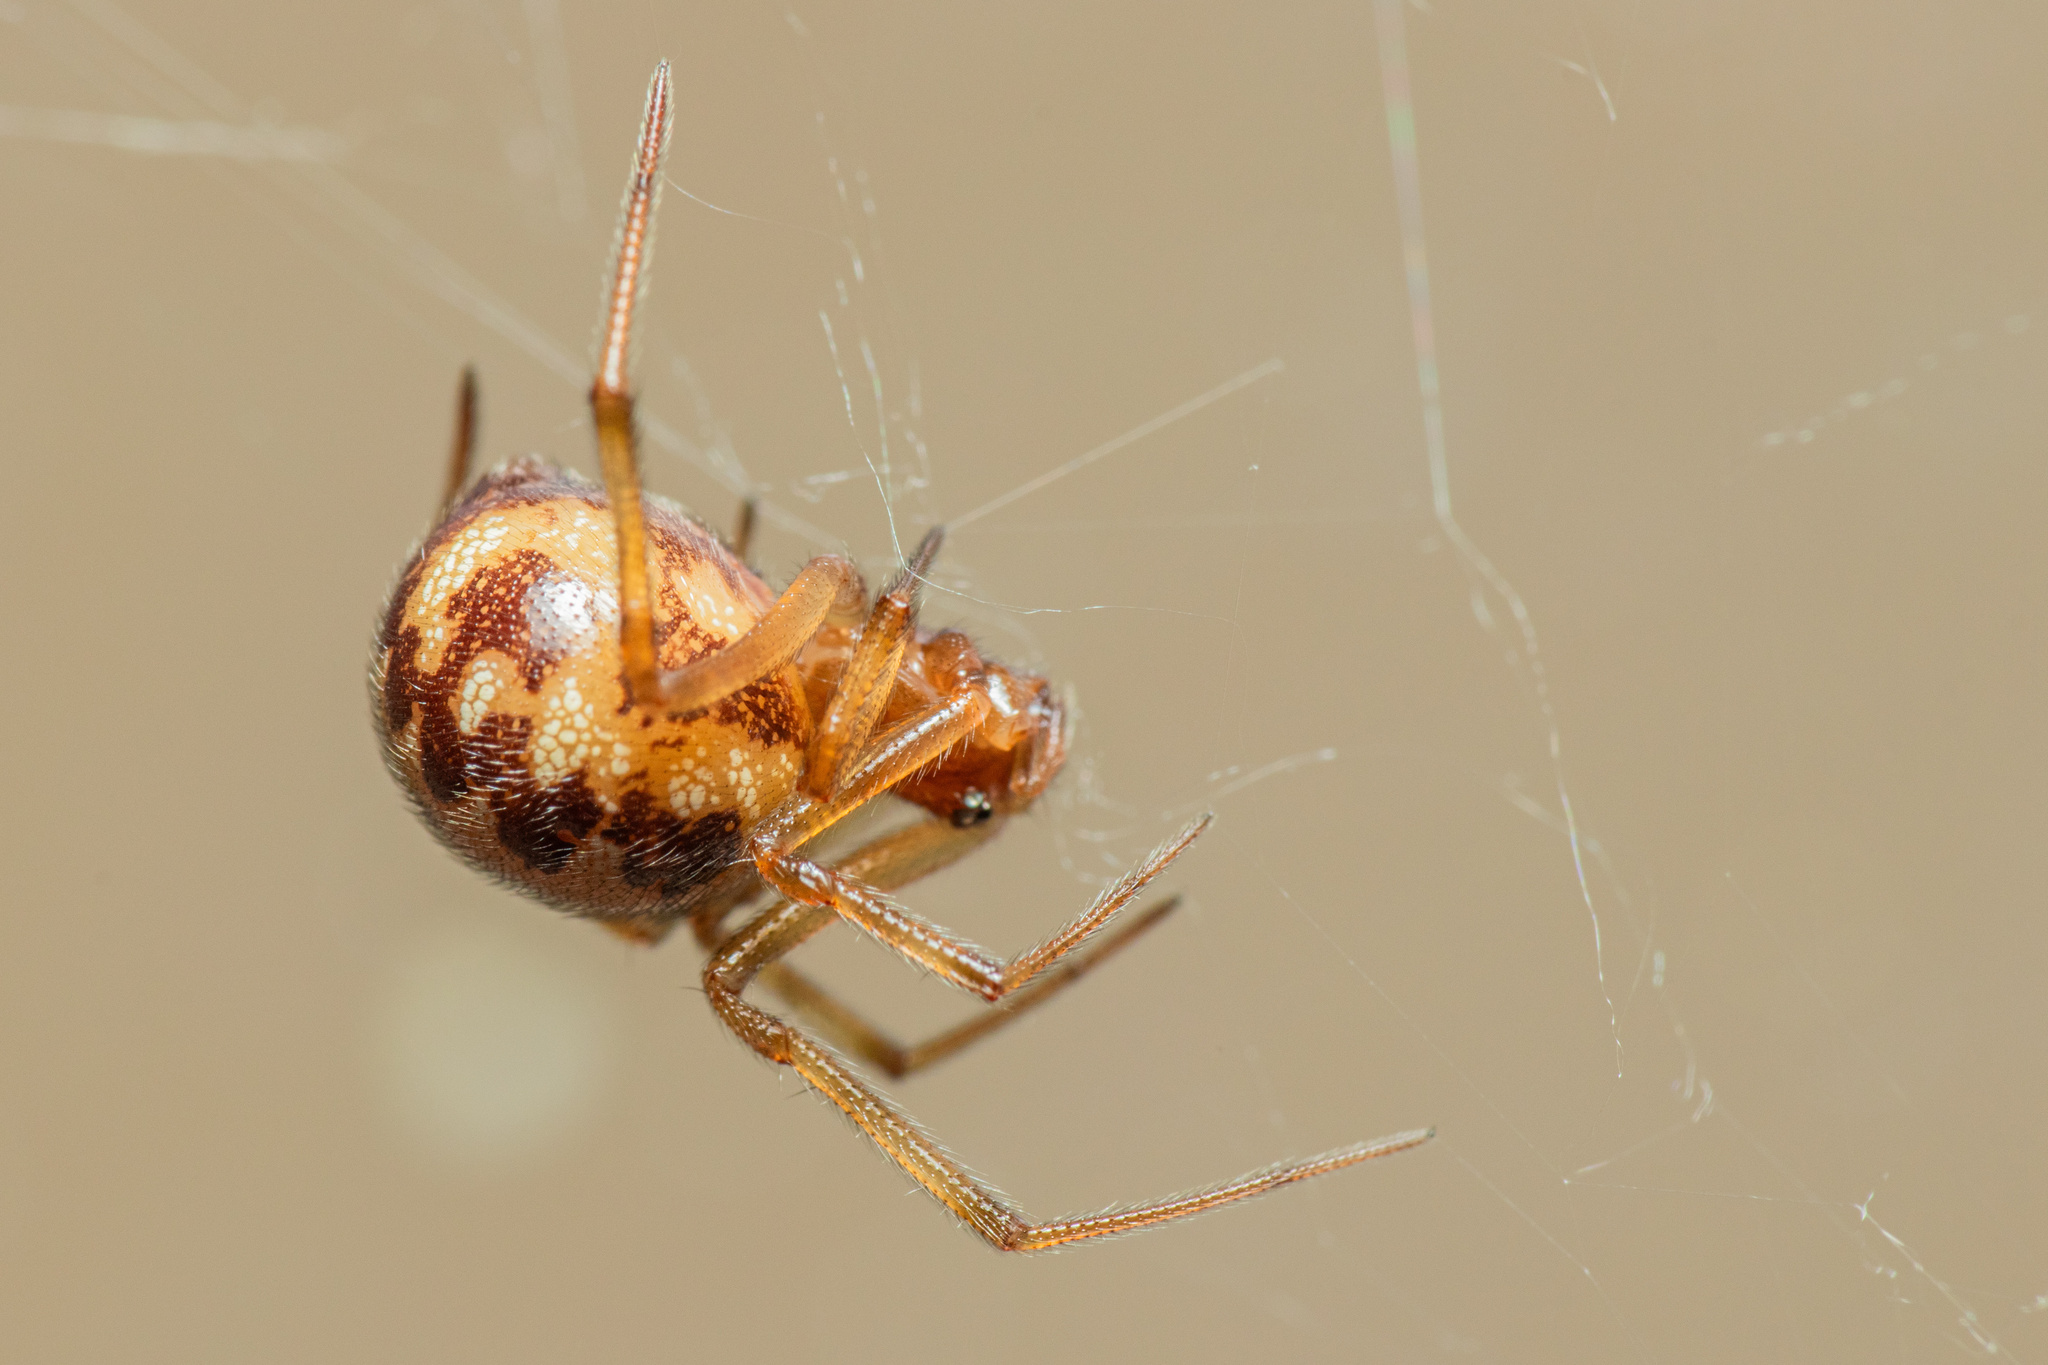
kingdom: Animalia
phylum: Arthropoda
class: Arachnida
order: Araneae
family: Theridiidae
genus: Steatoda
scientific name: Steatoda triangulosa
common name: Triangulate bud spider
